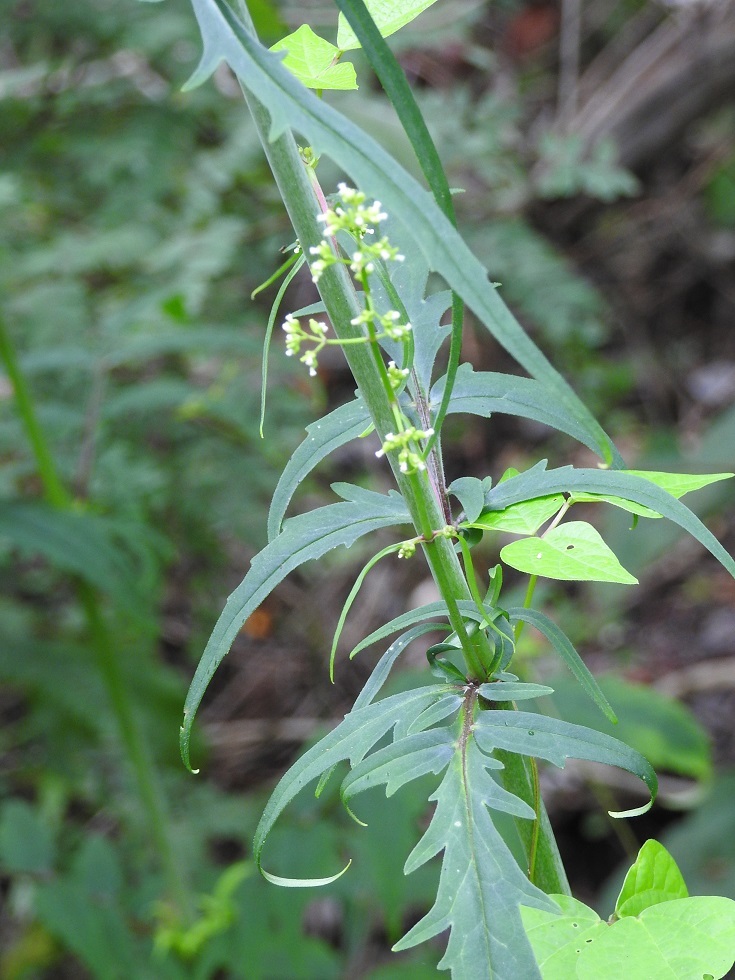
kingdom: Plantae
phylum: Tracheophyta
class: Magnoliopsida
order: Dipsacales
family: Caprifoliaceae
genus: Valeriana
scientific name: Valeriana sorbifolia
